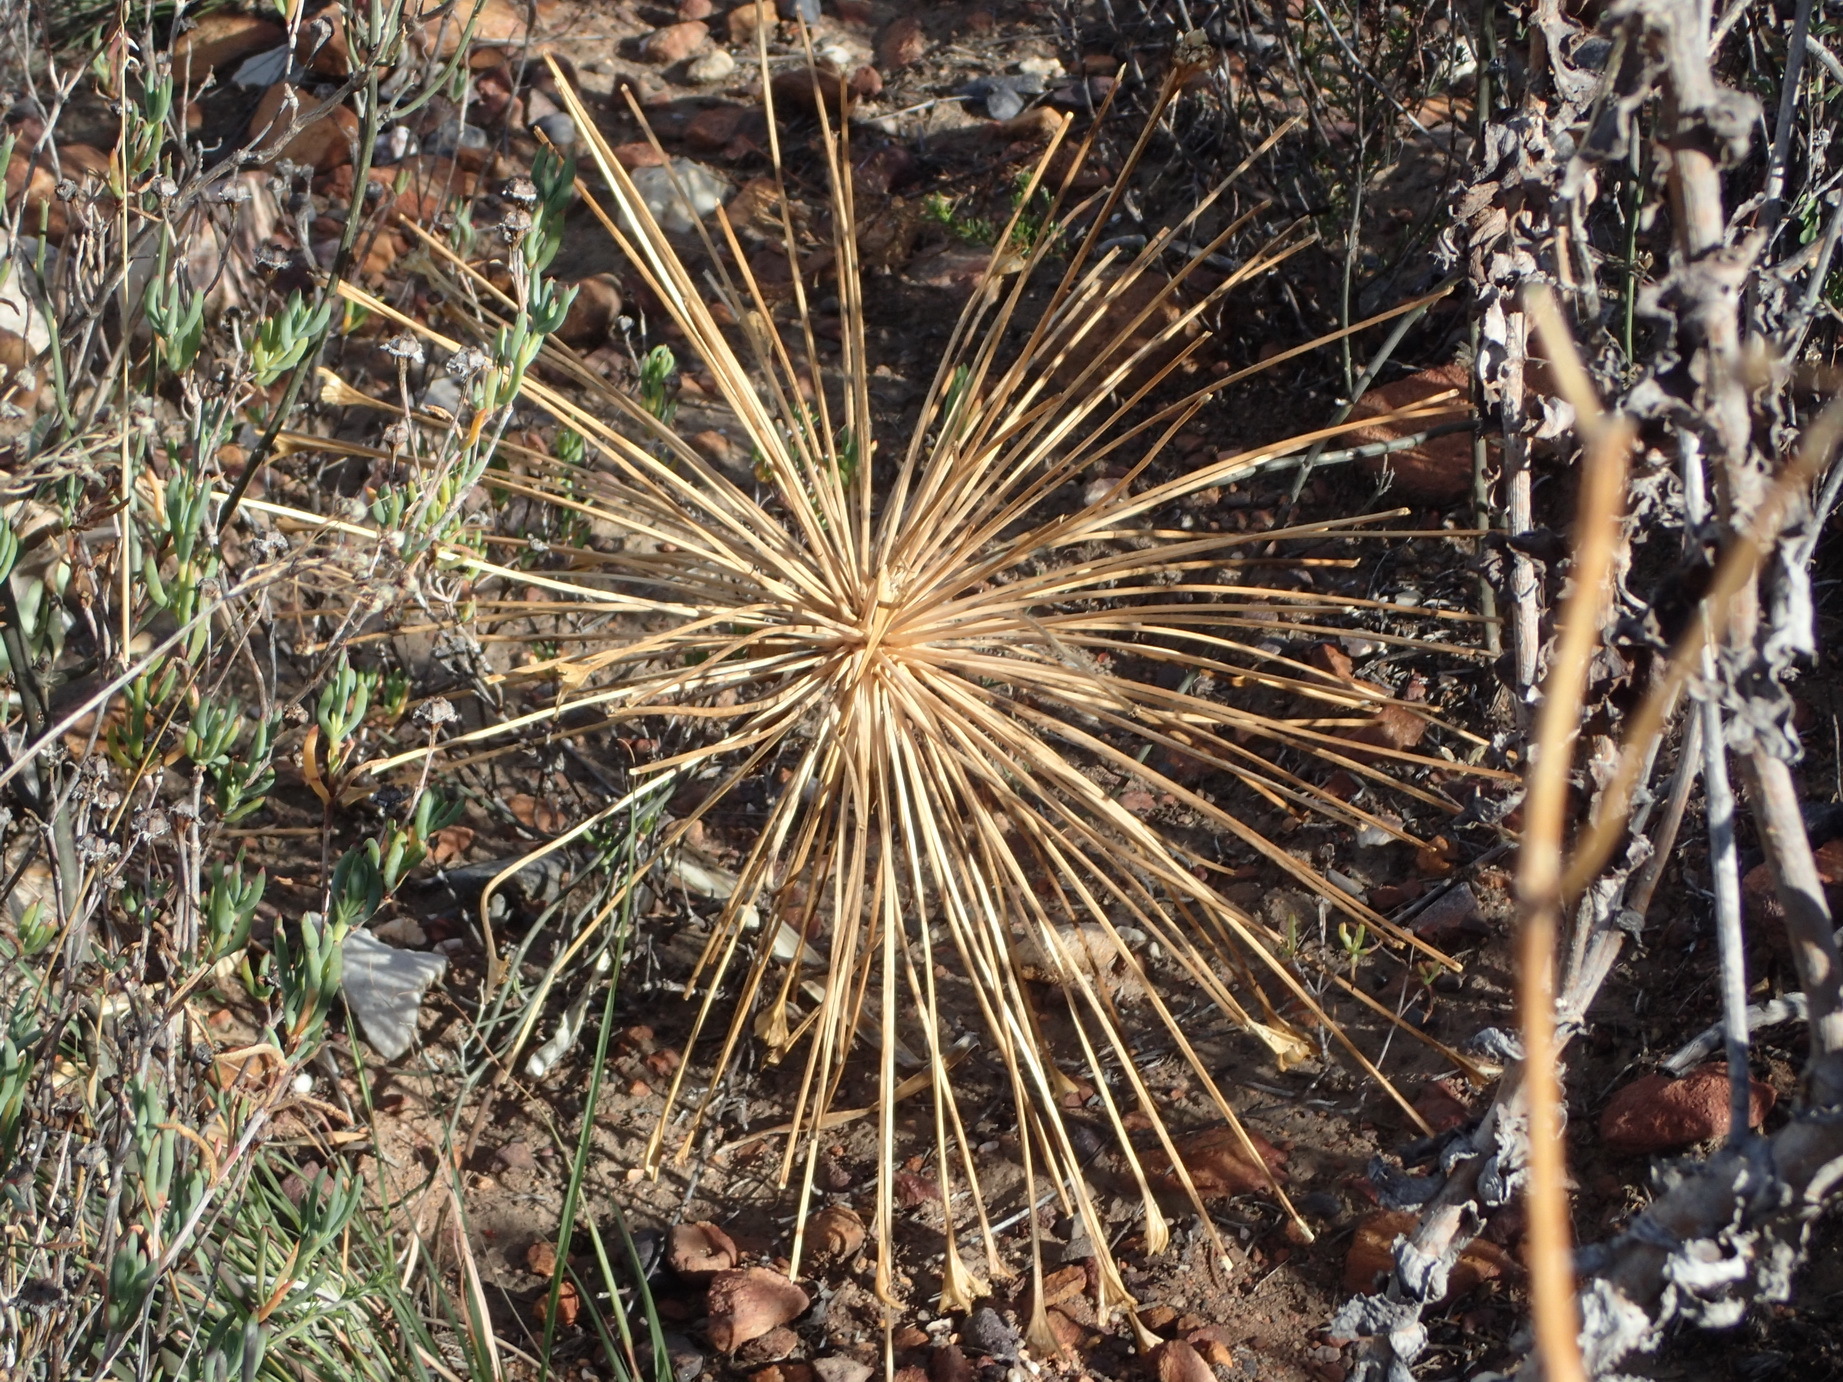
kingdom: Plantae
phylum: Tracheophyta
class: Liliopsida
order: Asparagales
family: Amaryllidaceae
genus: Boophone
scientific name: Boophone disticha
